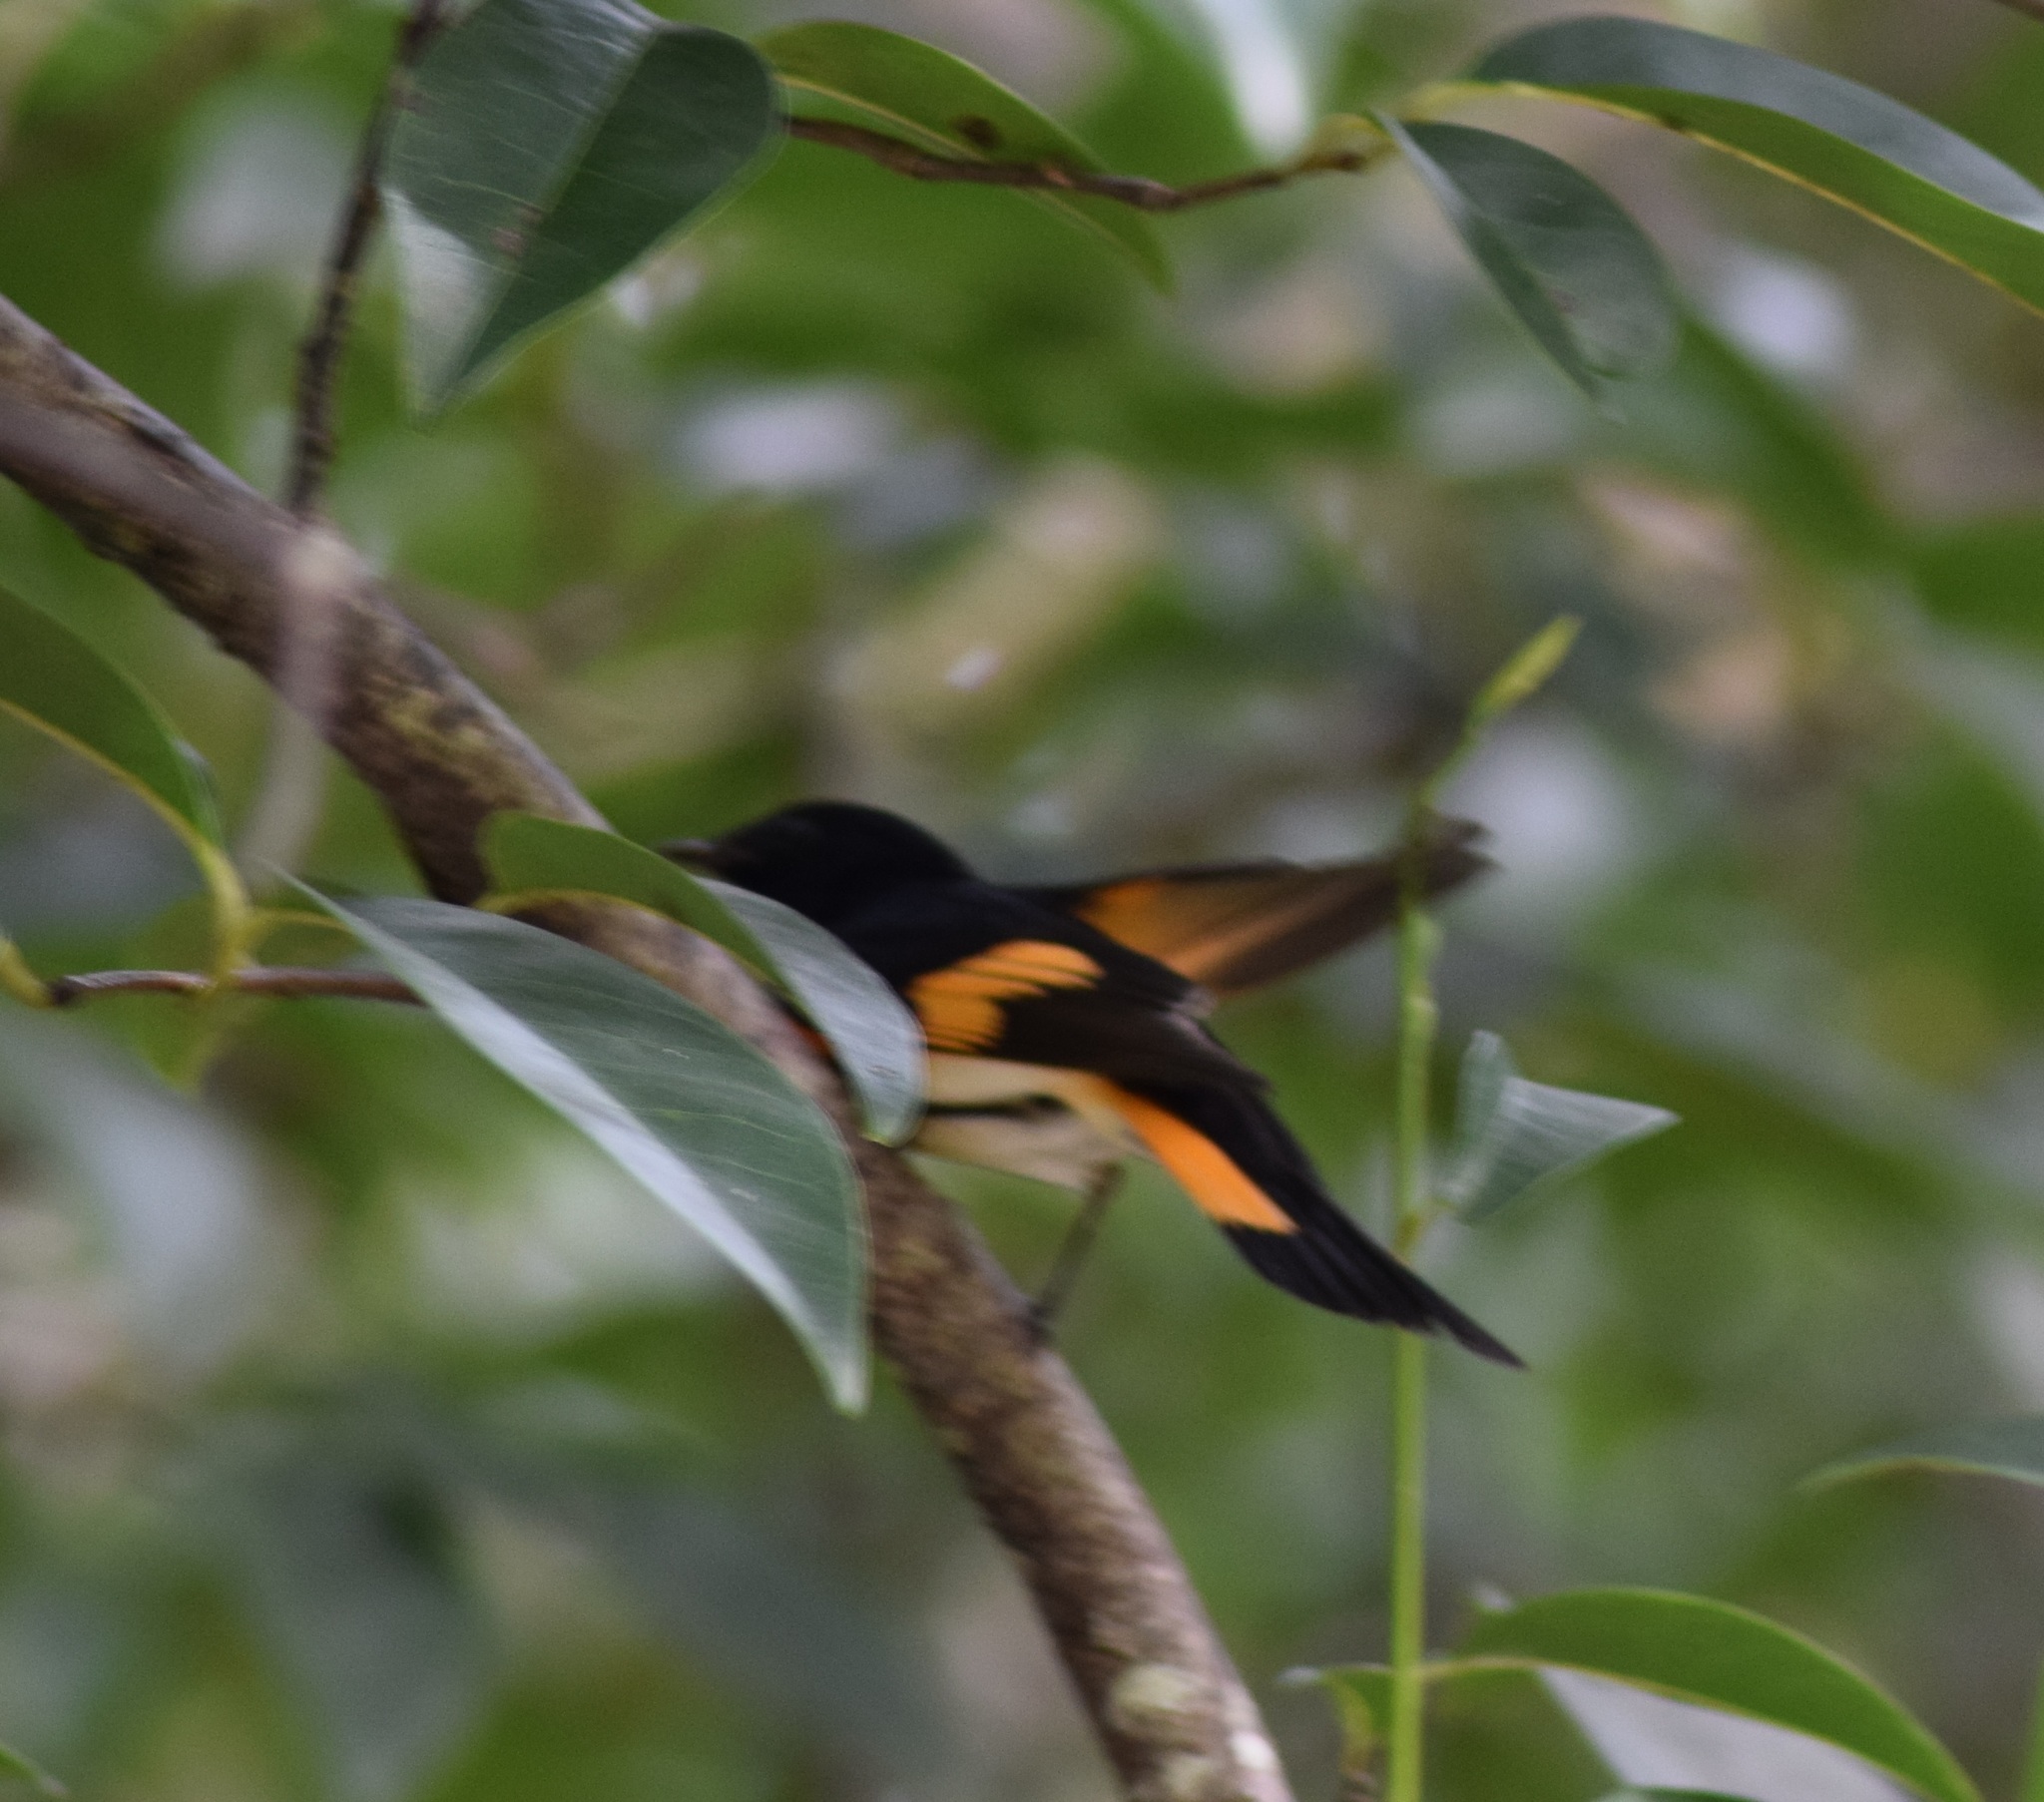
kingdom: Animalia
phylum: Chordata
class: Aves
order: Passeriformes
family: Parulidae
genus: Setophaga
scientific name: Setophaga ruticilla
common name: American redstart
